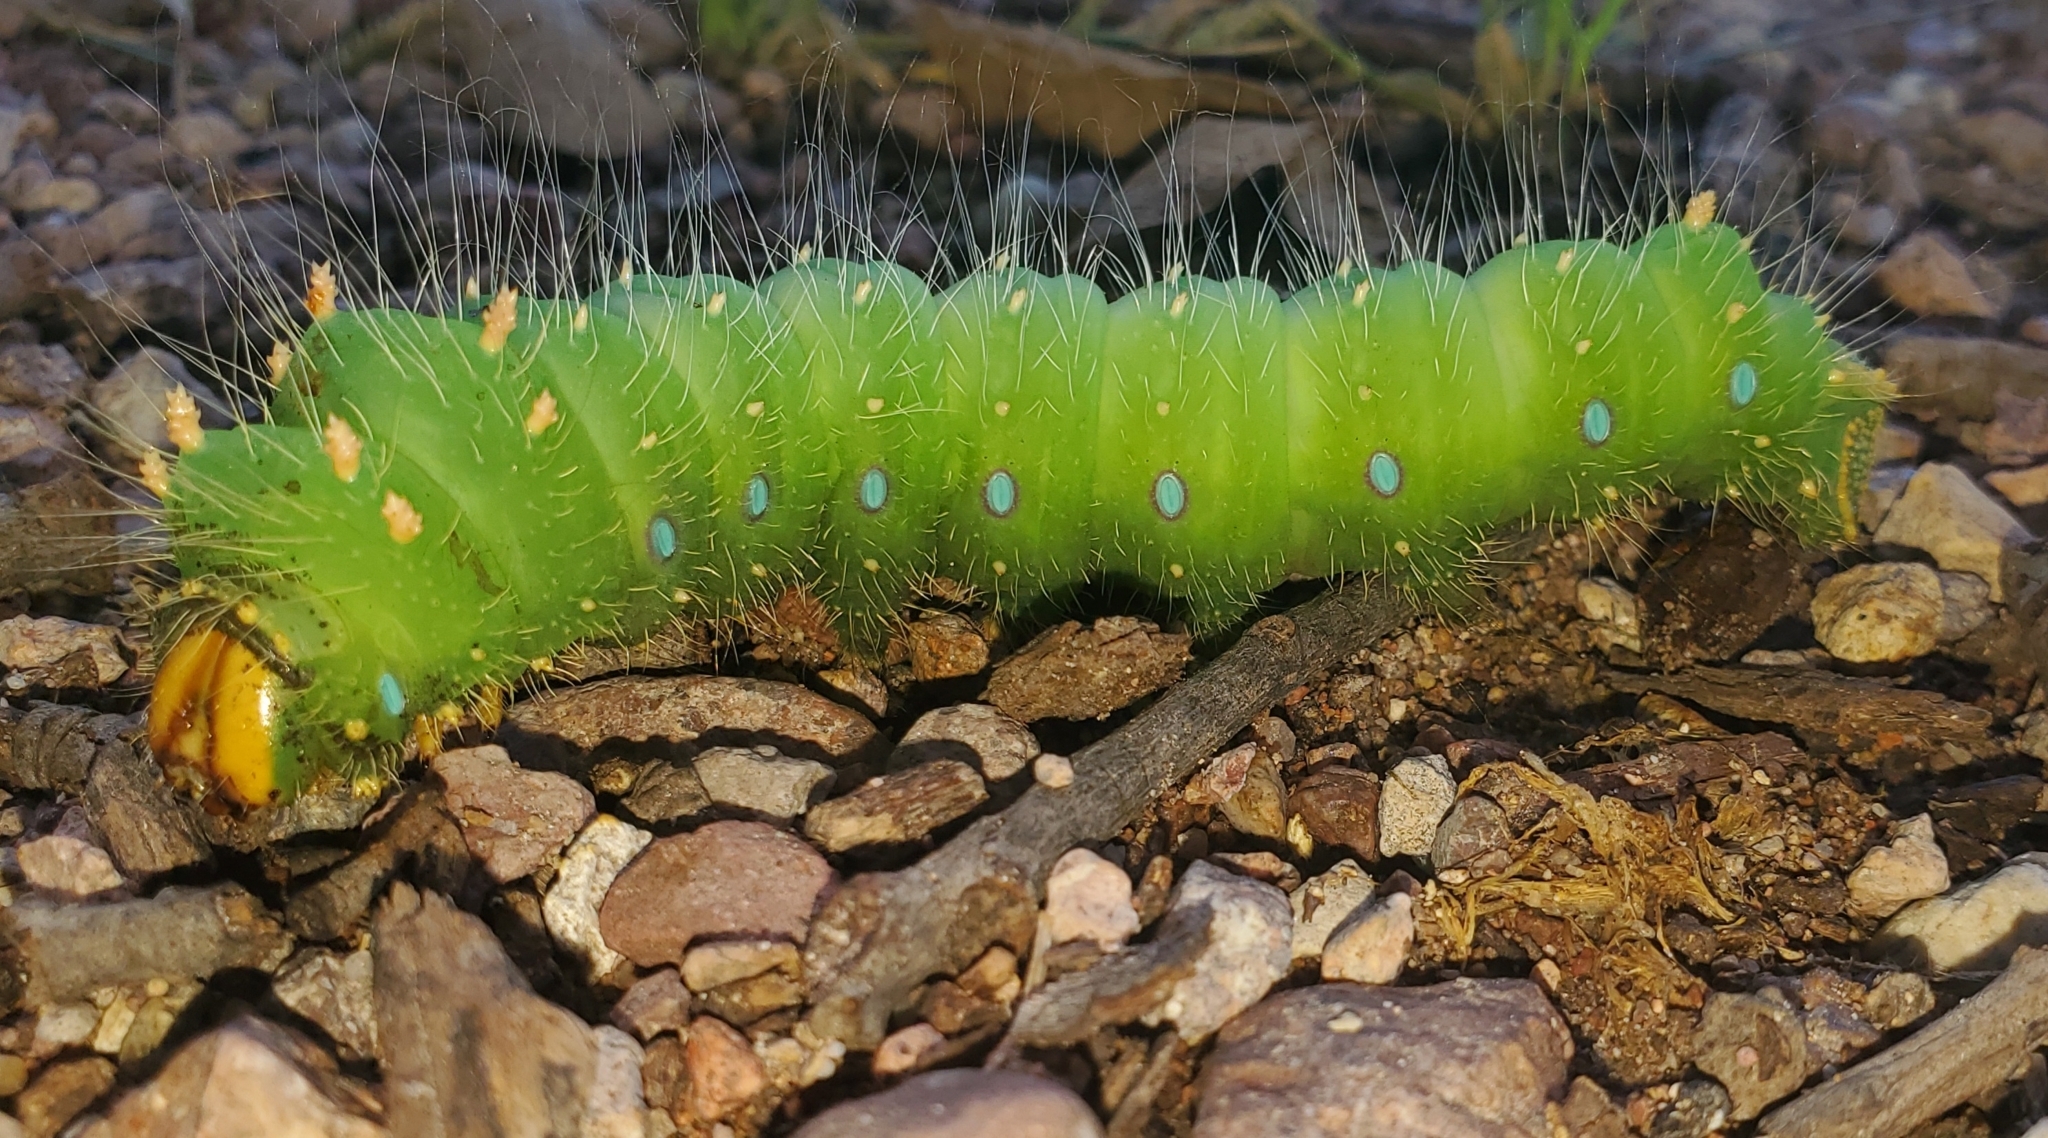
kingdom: Animalia
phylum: Arthropoda
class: Insecta
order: Lepidoptera
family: Saturniidae
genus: Eacles
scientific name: Eacles oslari
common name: Oslar's imperial moth
